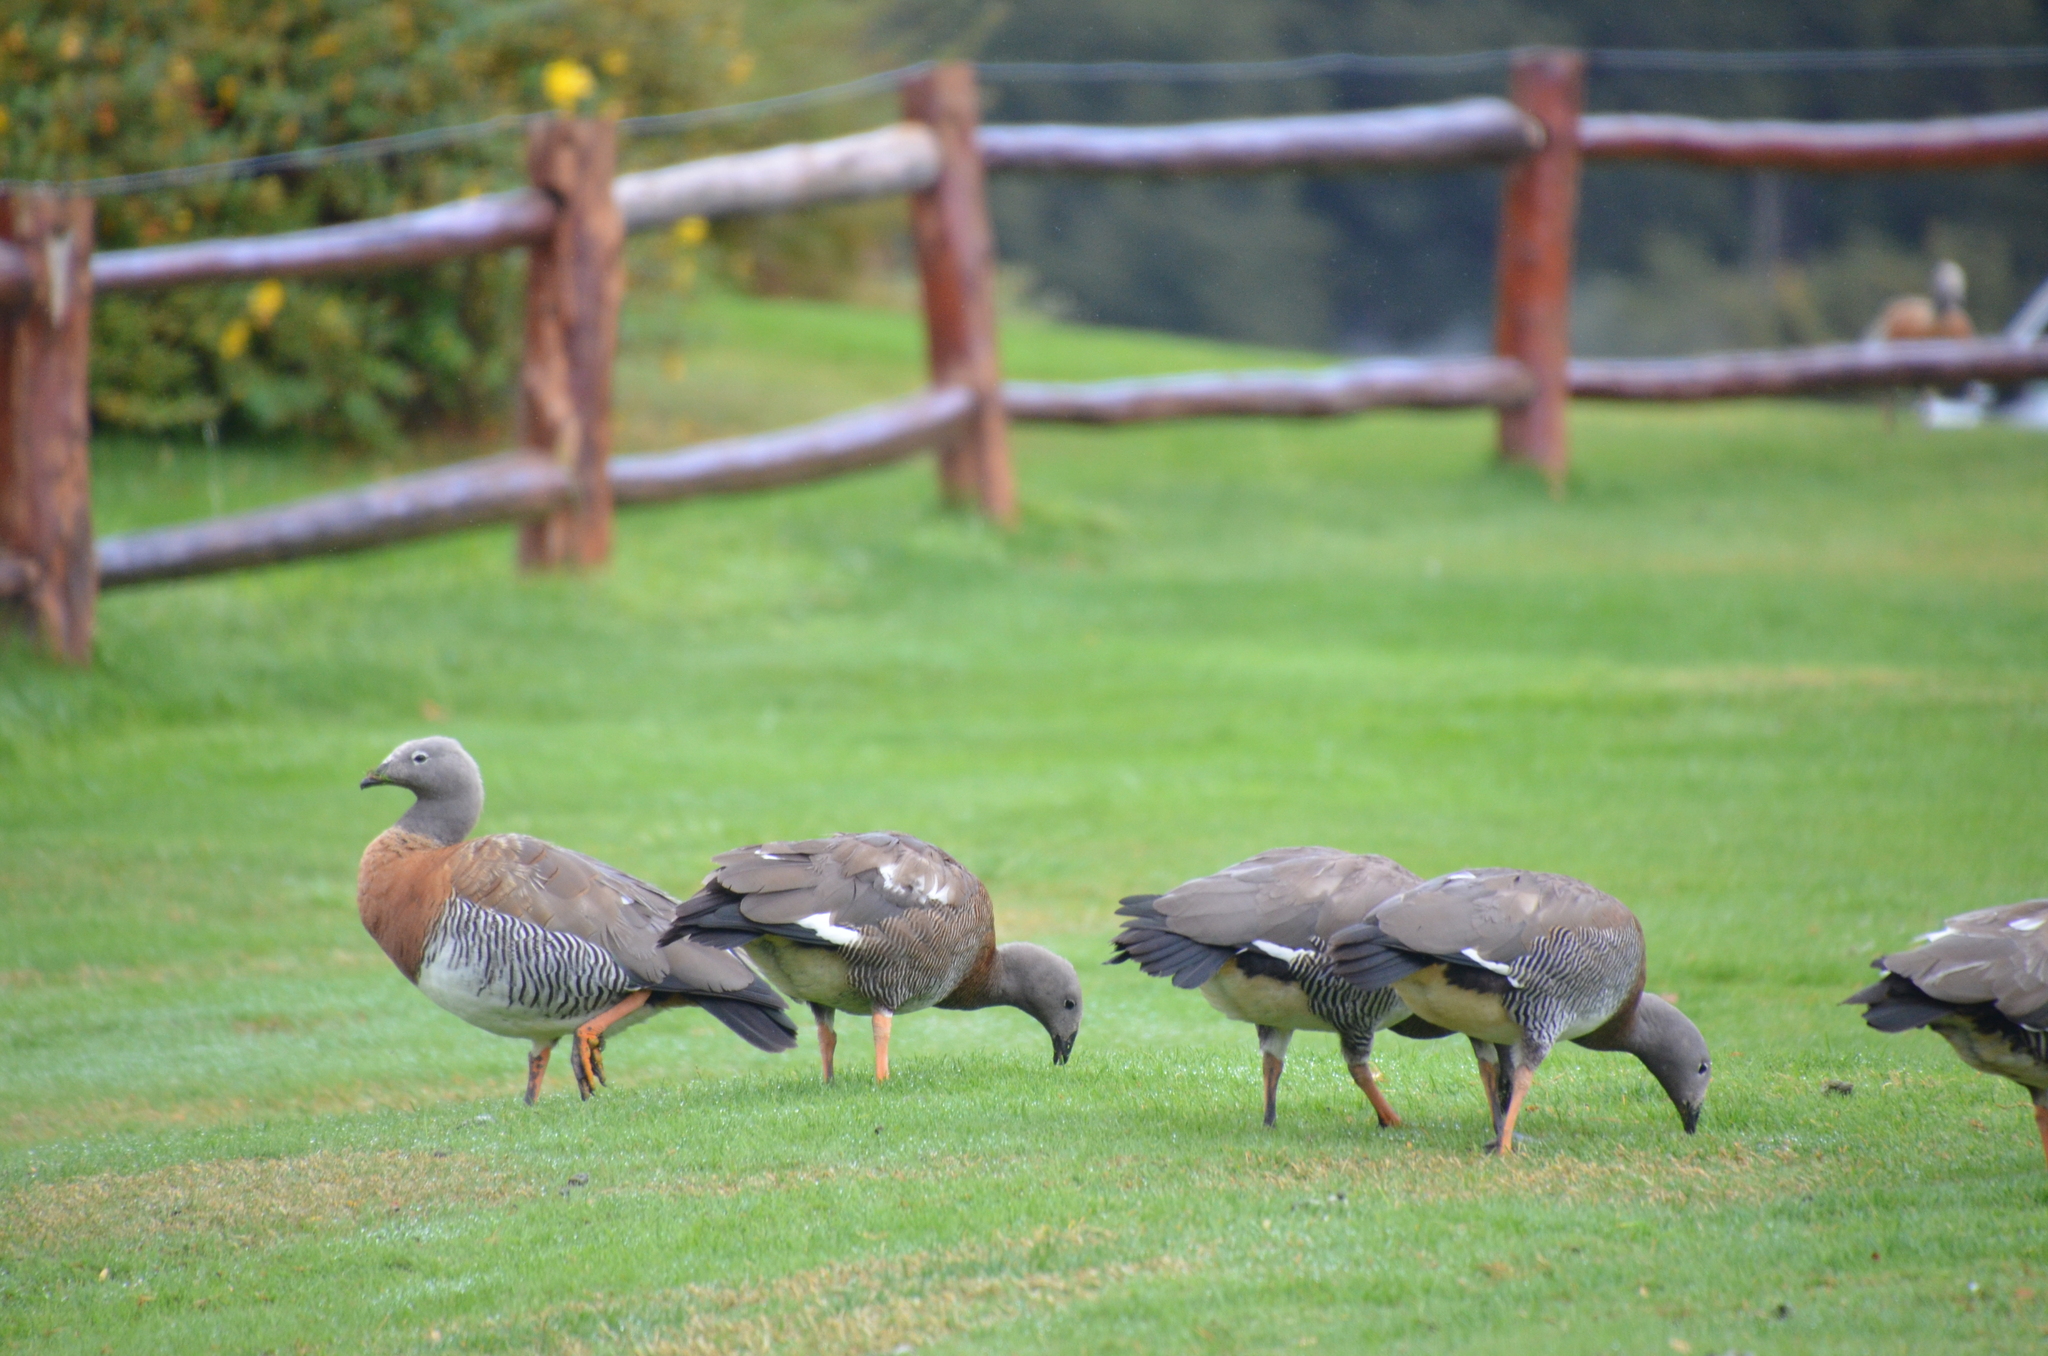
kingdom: Animalia
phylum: Chordata
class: Aves
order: Anseriformes
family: Anatidae
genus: Chloephaga
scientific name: Chloephaga poliocephala
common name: Ashy-headed goose
